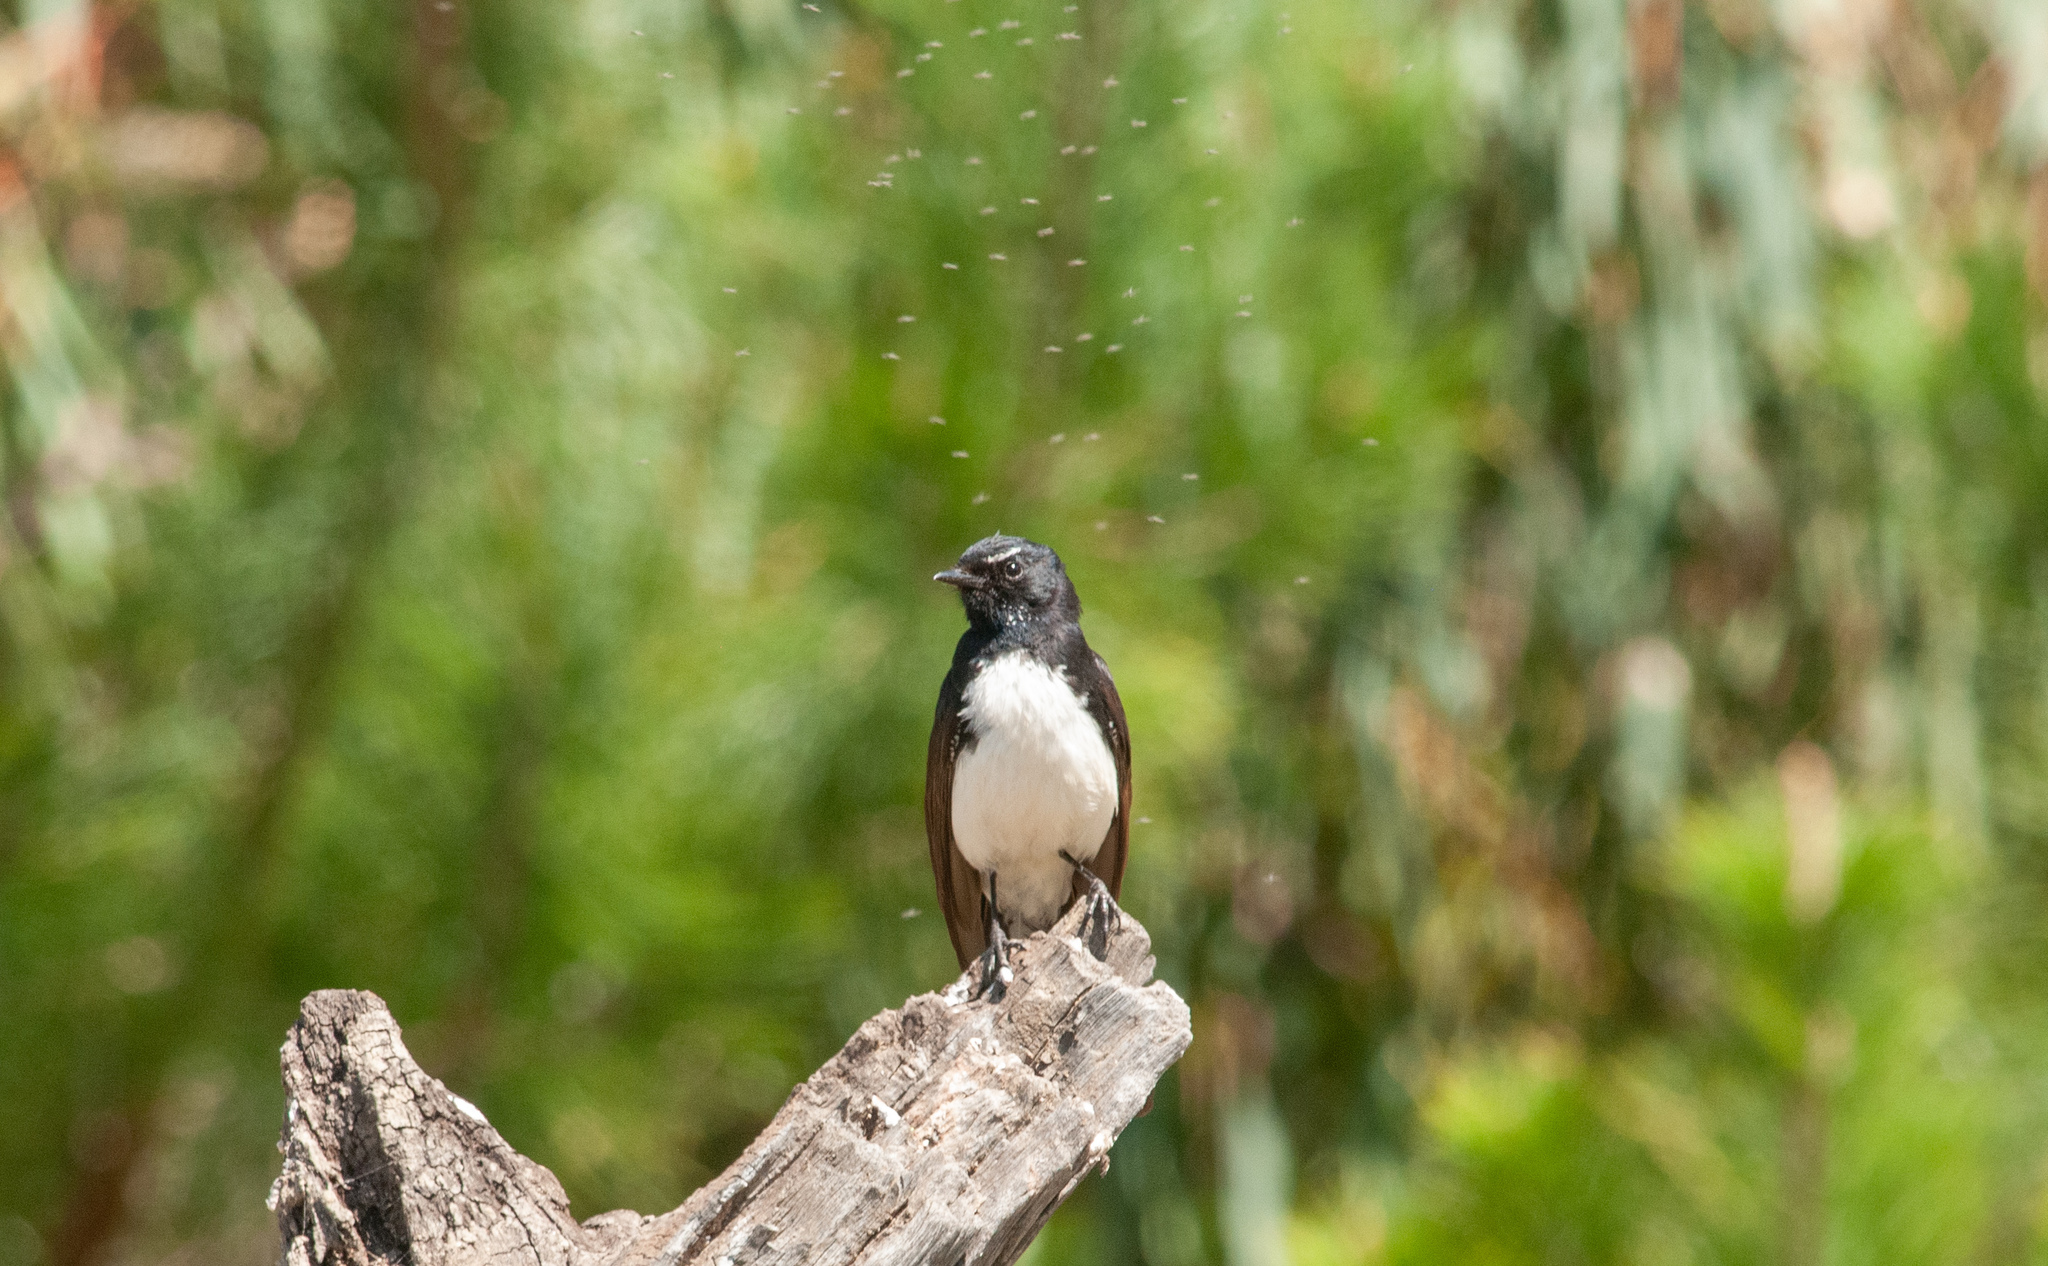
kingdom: Animalia
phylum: Chordata
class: Aves
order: Passeriformes
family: Rhipiduridae
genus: Rhipidura
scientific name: Rhipidura leucophrys
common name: Willie wagtail
